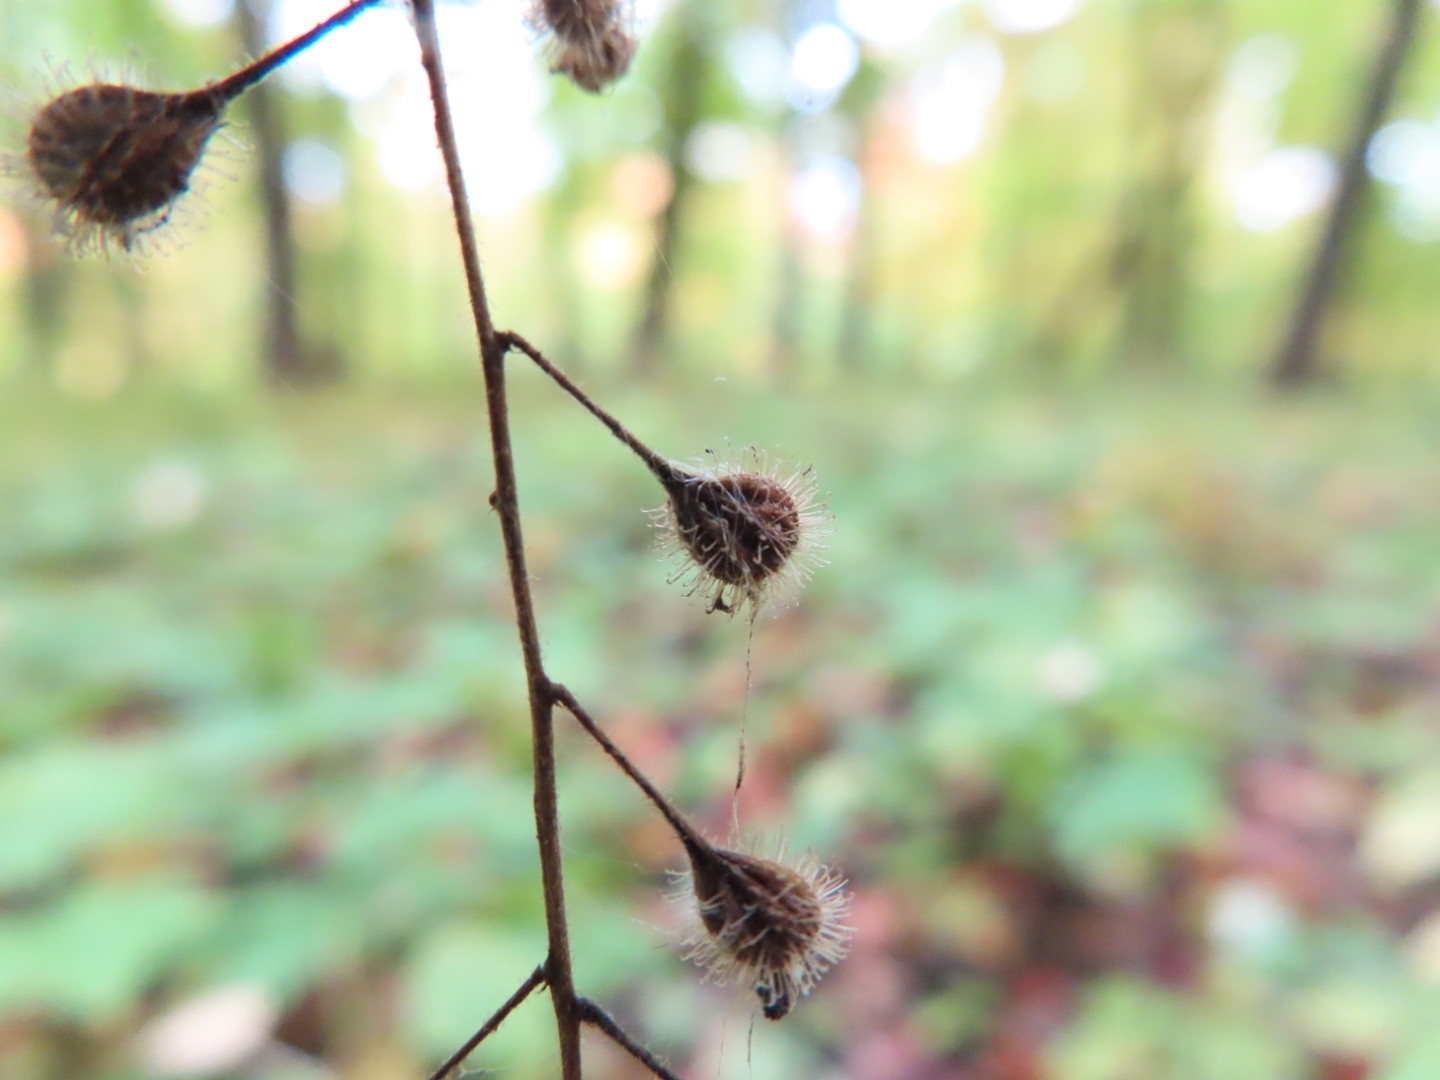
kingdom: Plantae
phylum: Tracheophyta
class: Magnoliopsida
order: Myrtales
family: Onagraceae
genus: Circaea
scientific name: Circaea canadensis
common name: Broad-leaved enchanter's nightshade
